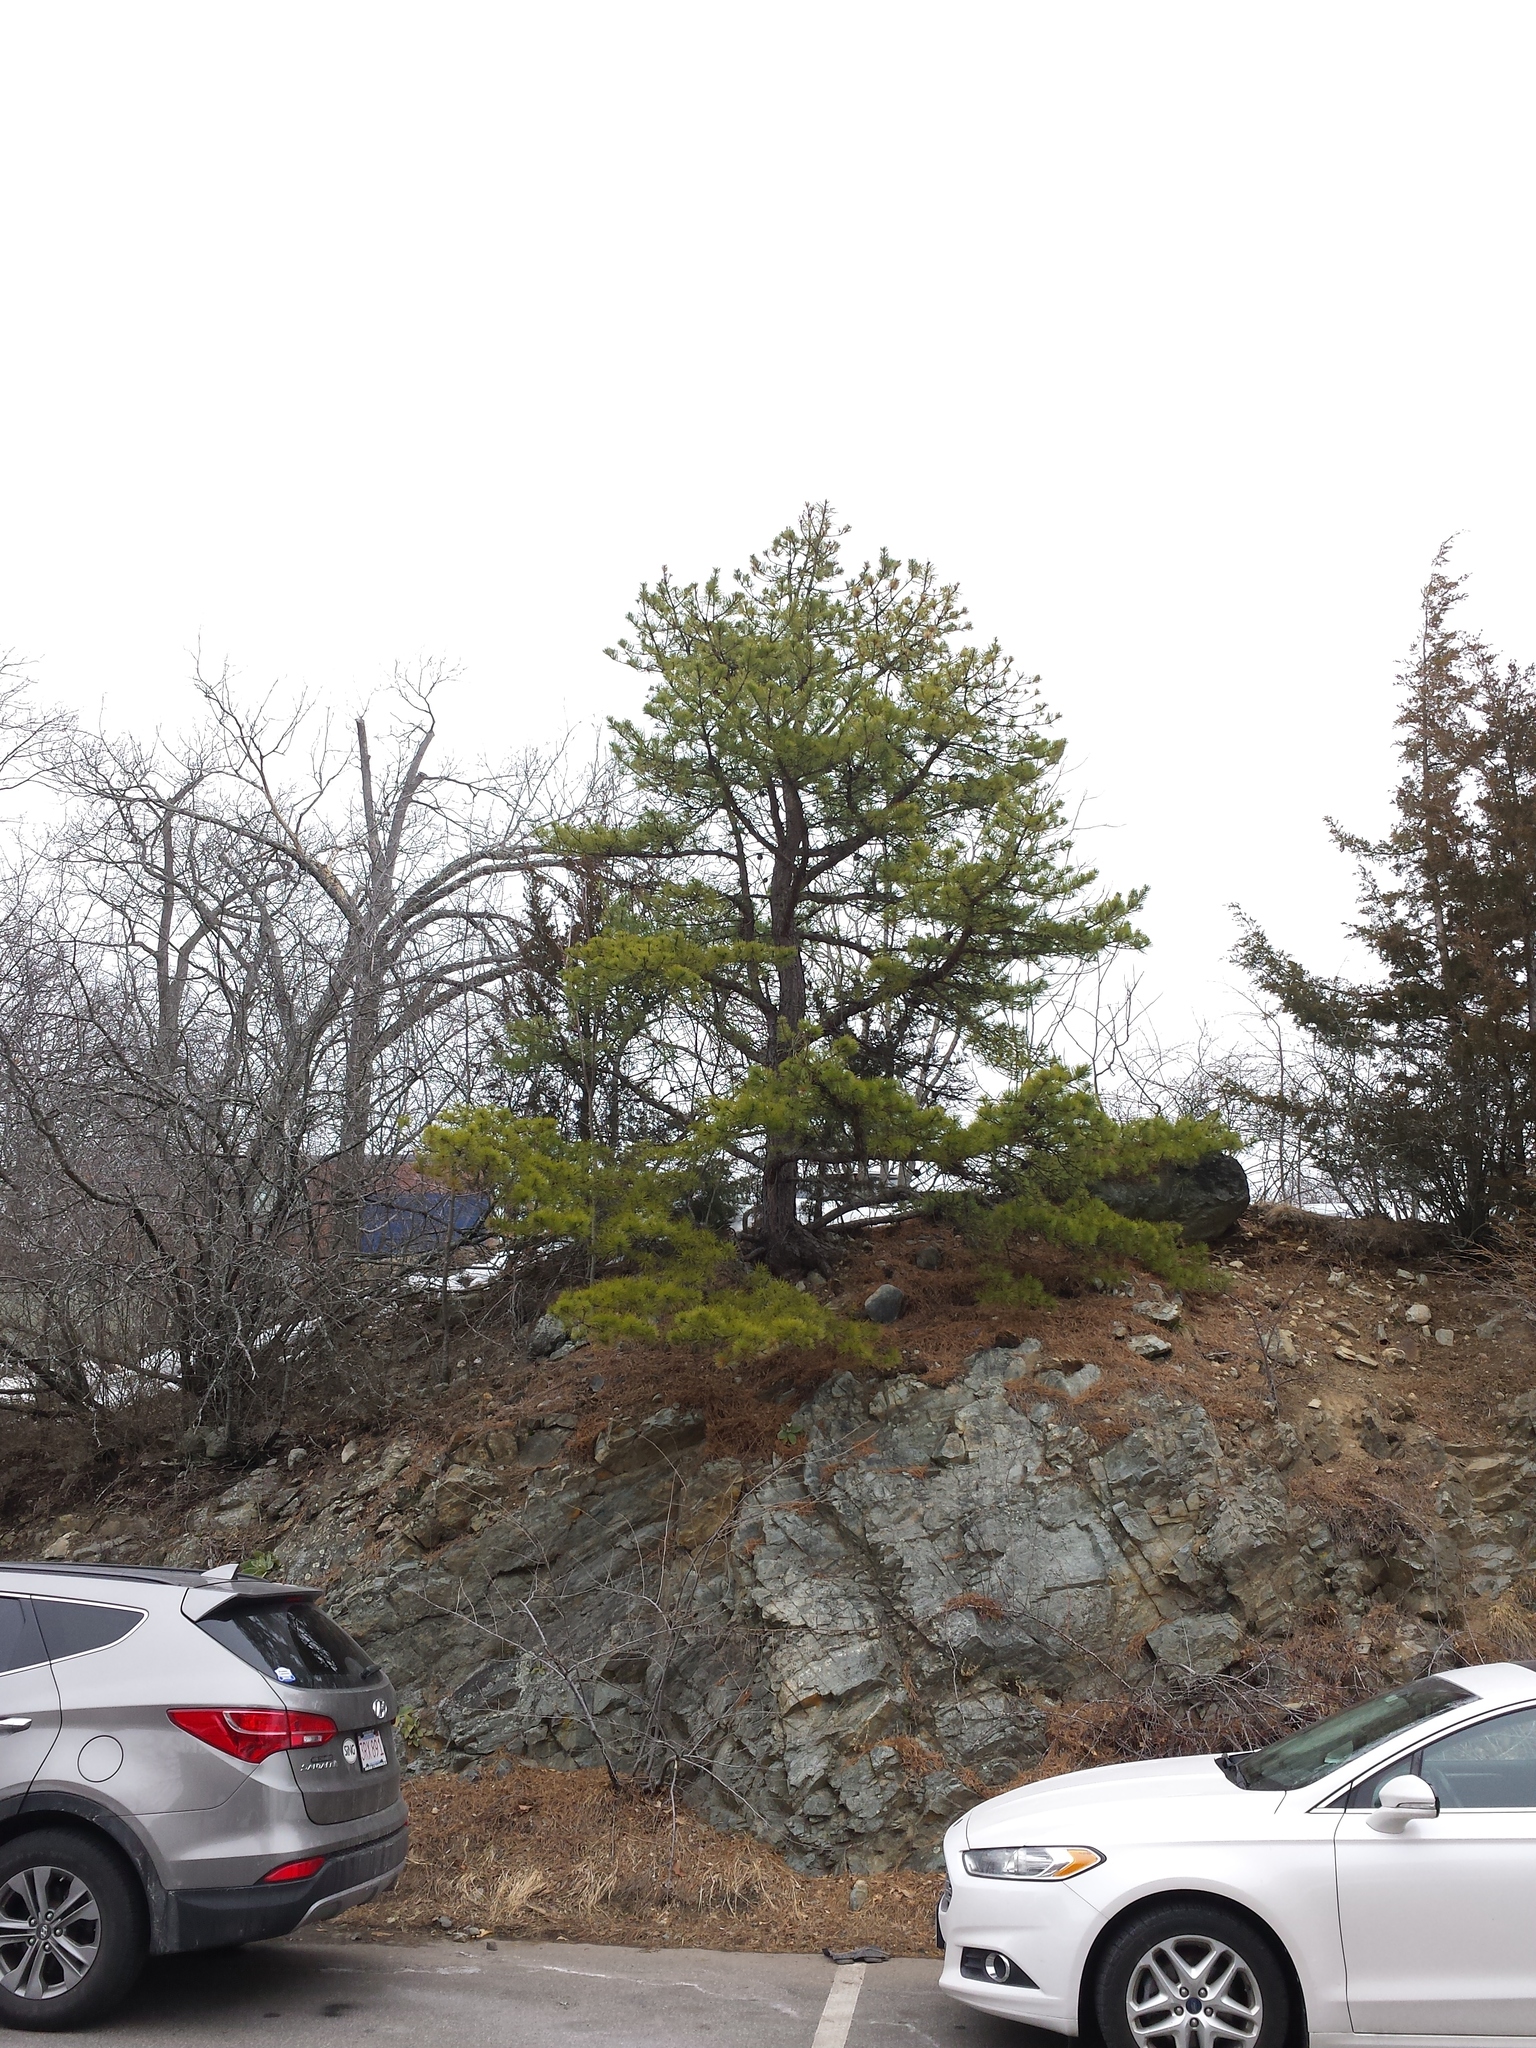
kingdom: Plantae
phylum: Tracheophyta
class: Pinopsida
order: Pinales
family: Pinaceae
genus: Pinus
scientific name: Pinus rigida
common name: Pitch pine
